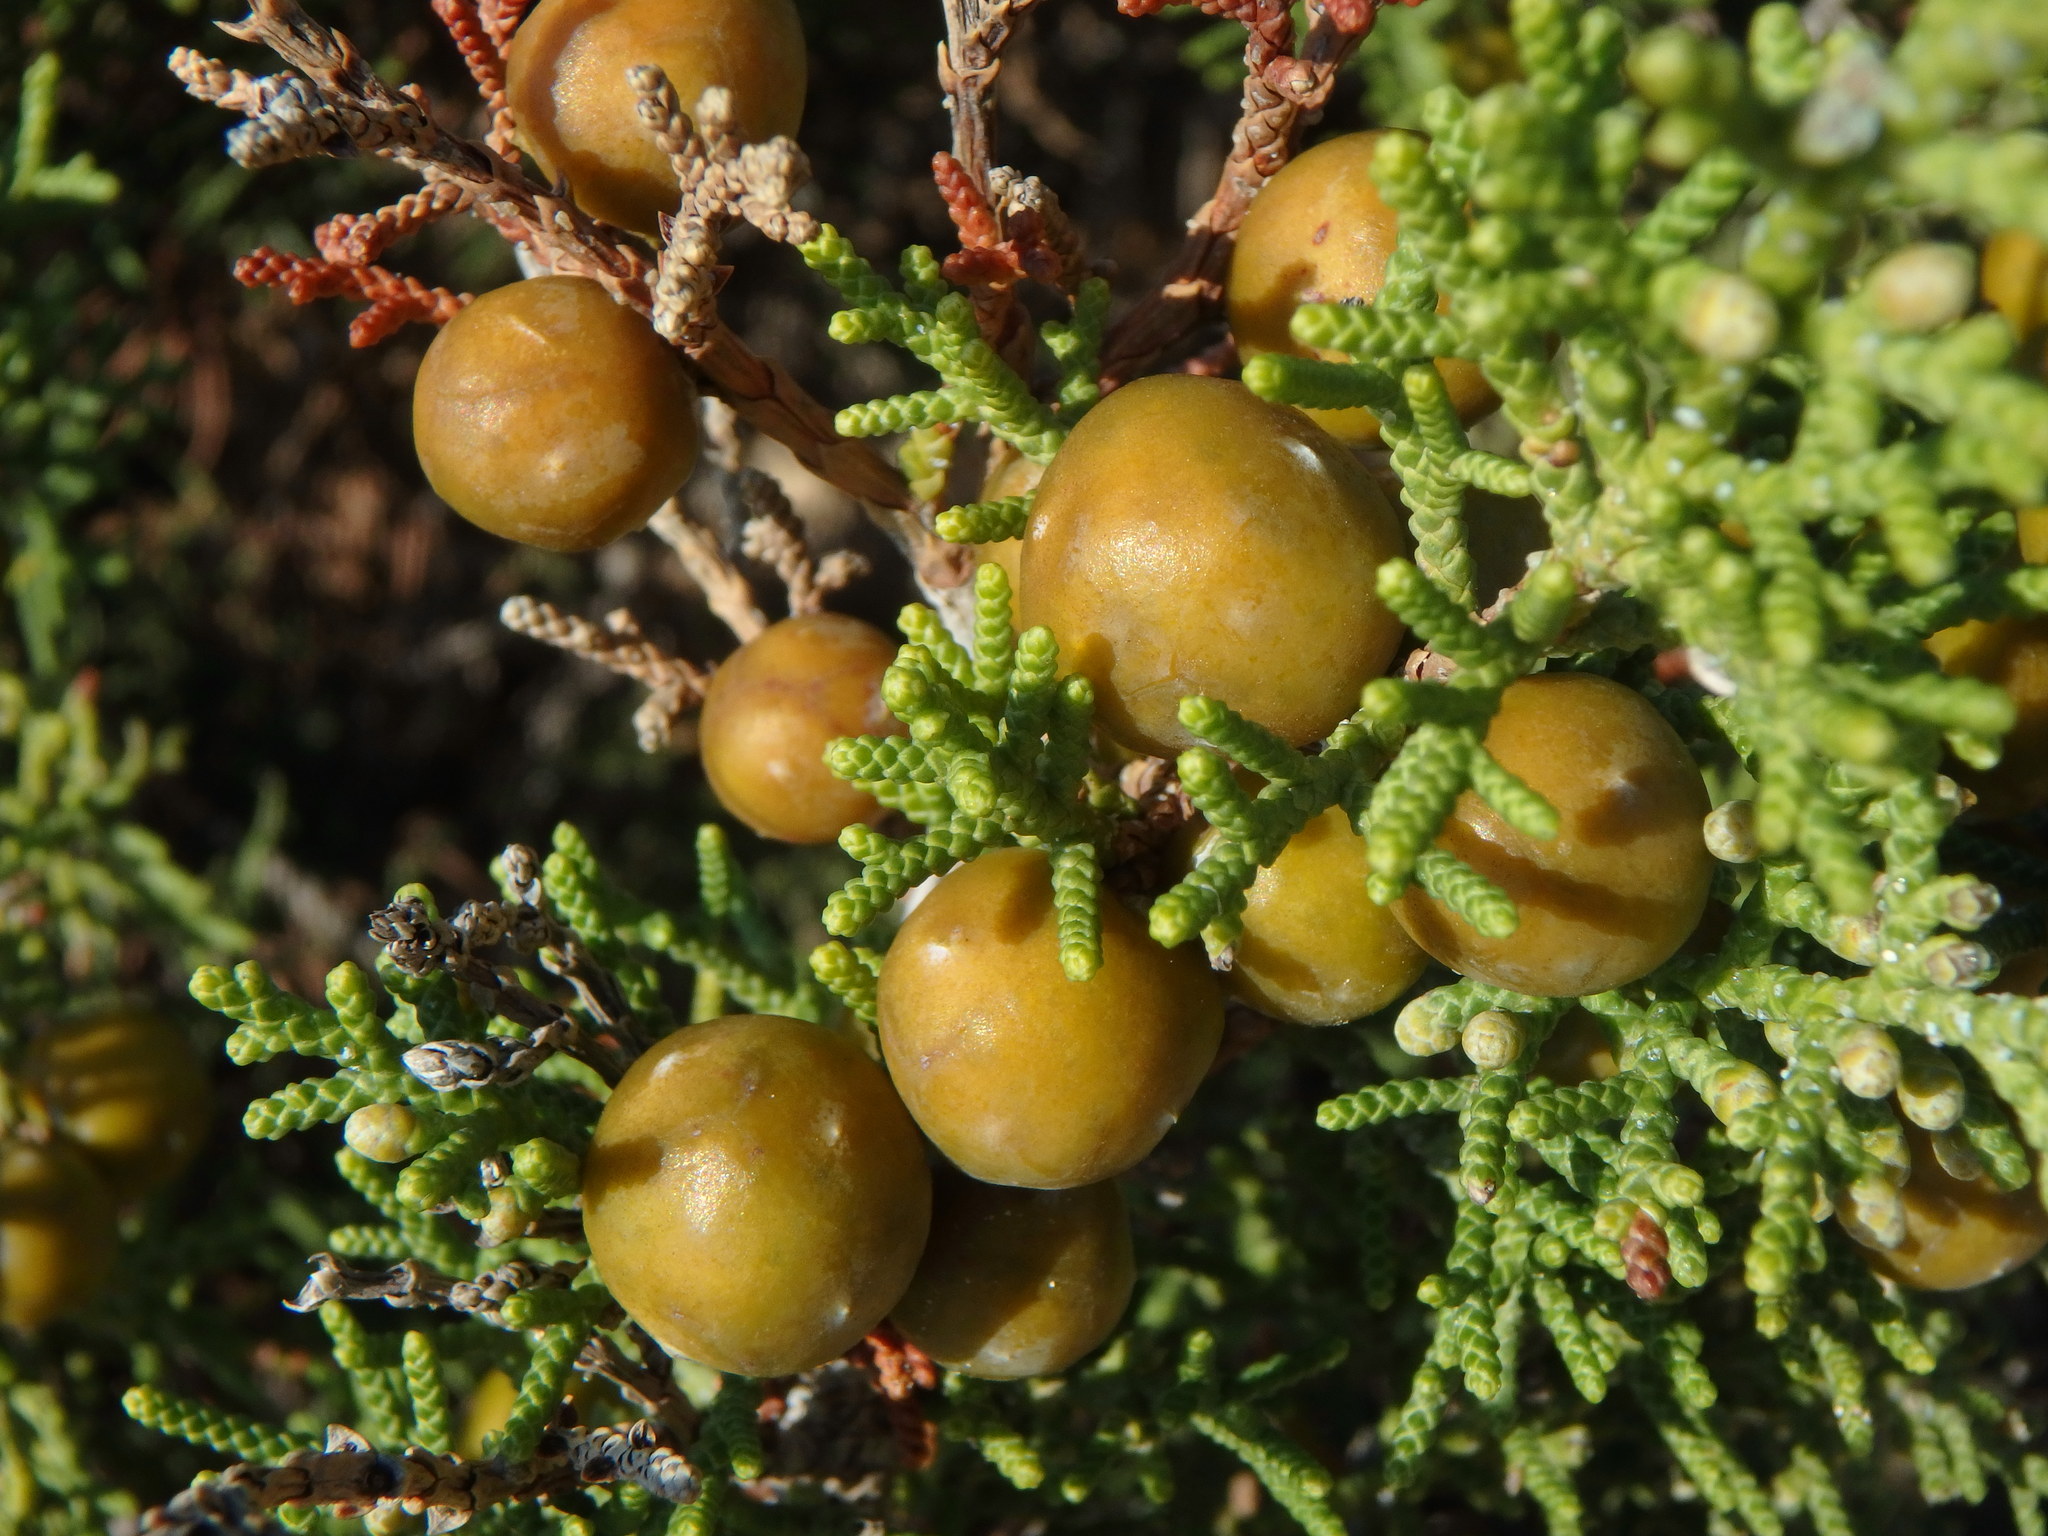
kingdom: Plantae
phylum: Tracheophyta
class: Pinopsida
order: Pinales
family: Cupressaceae
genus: Juniperus
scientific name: Juniperus phoenicea
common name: Phoenician juniper
